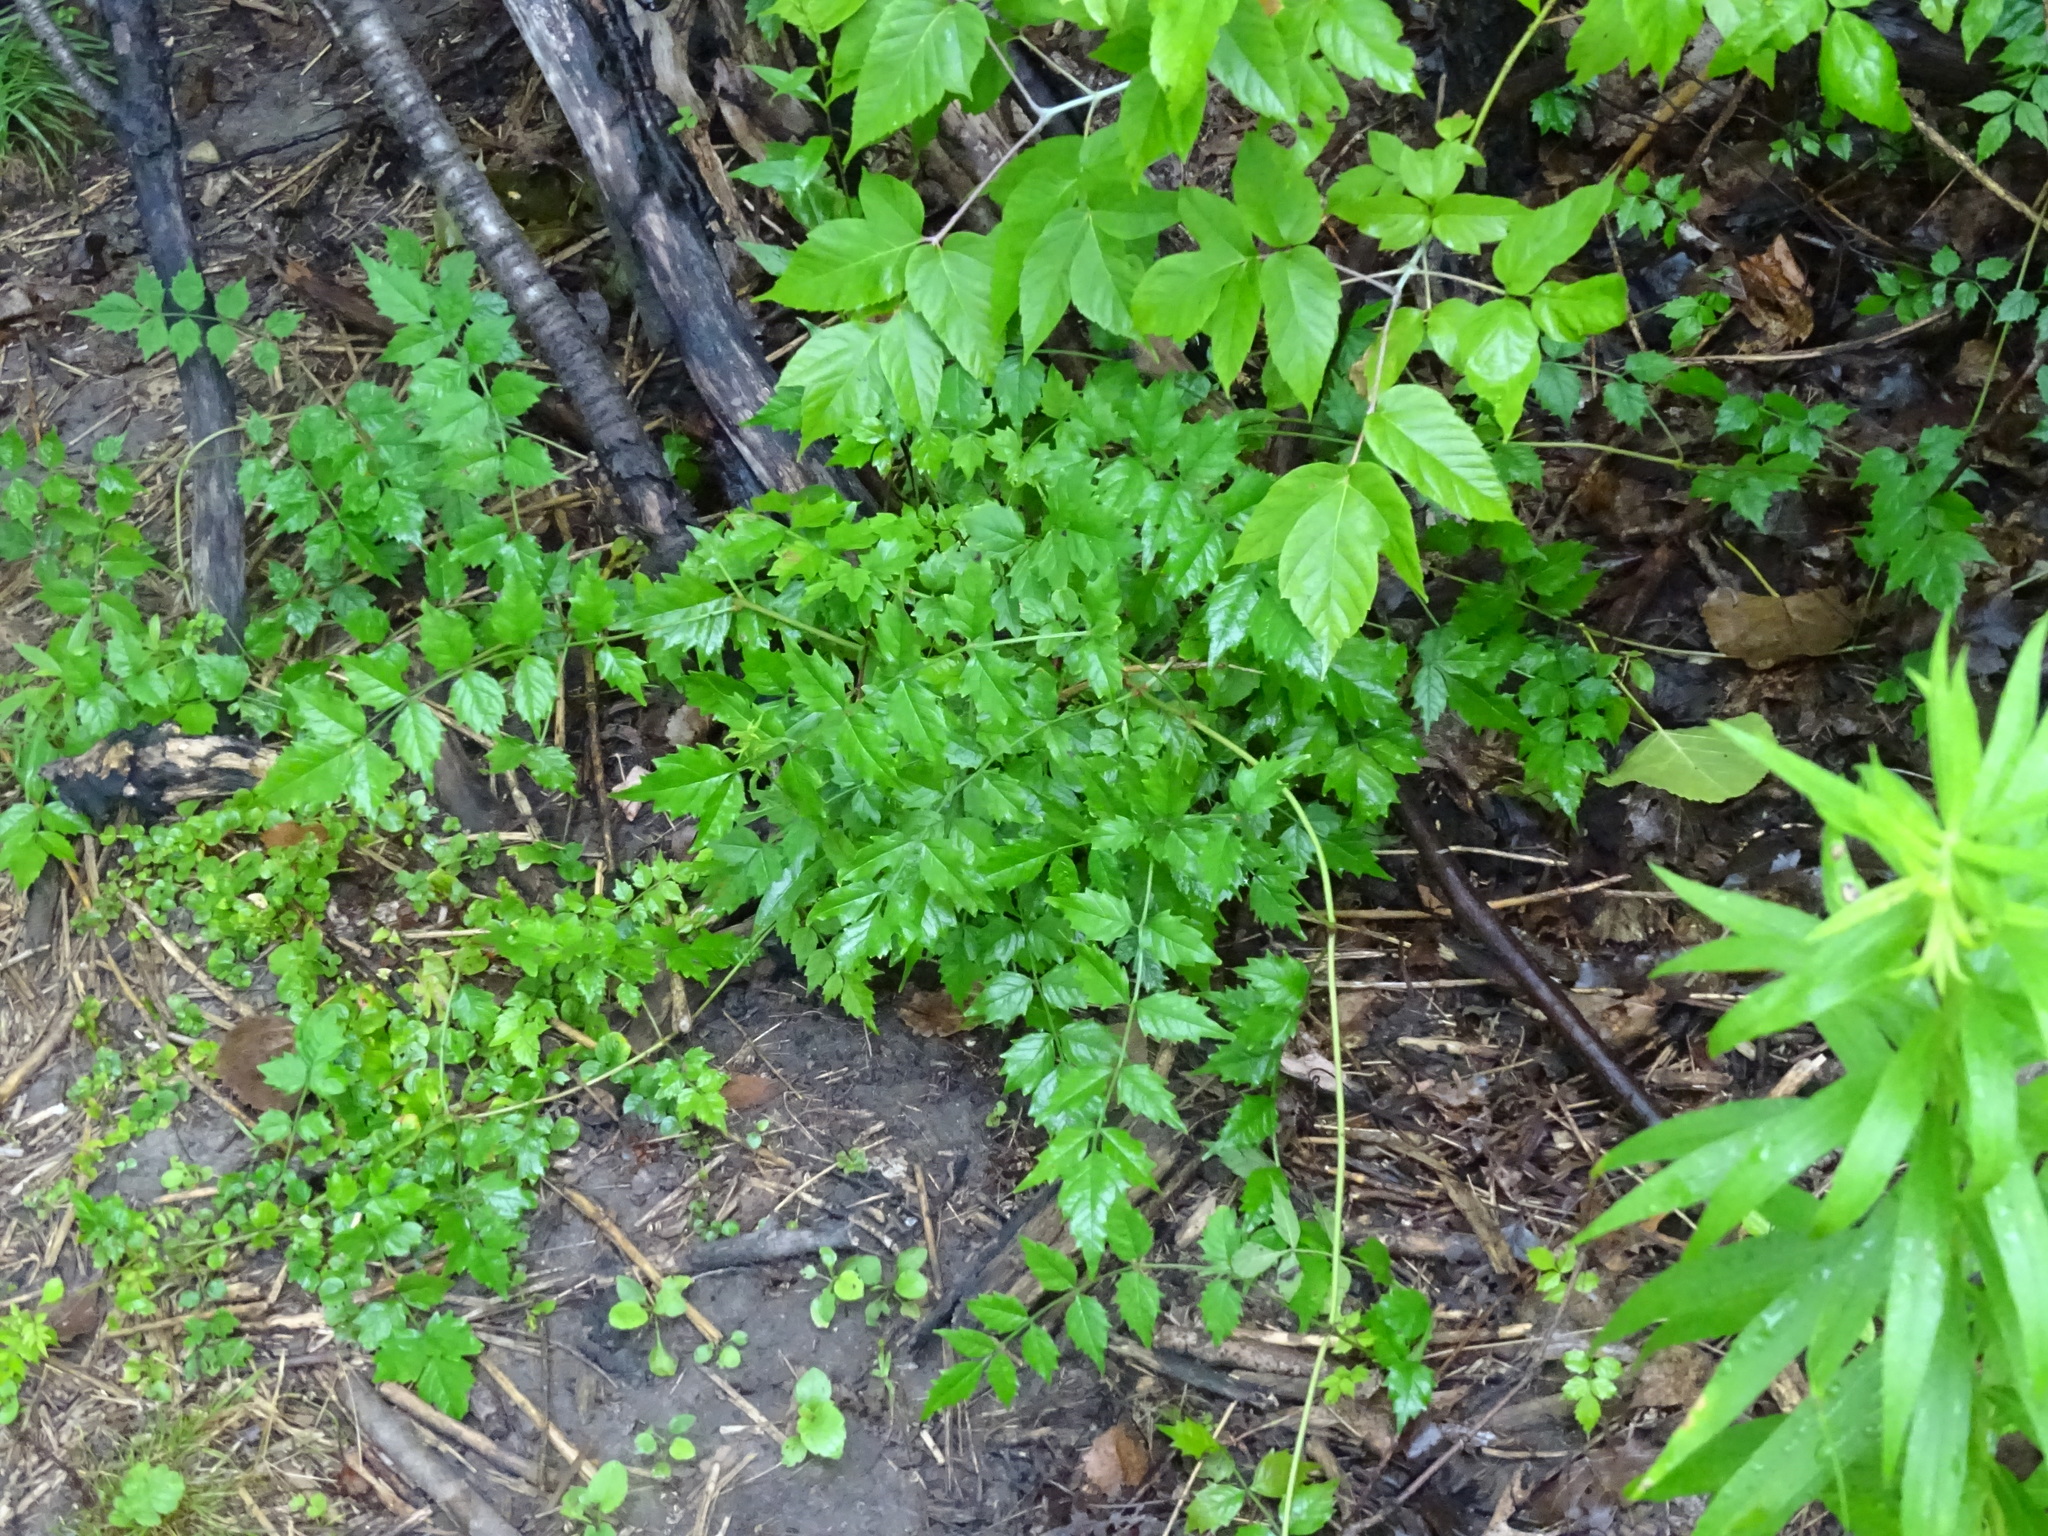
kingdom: Plantae
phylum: Tracheophyta
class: Magnoliopsida
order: Lamiales
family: Bignoniaceae
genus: Campsis
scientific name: Campsis radicans
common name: Trumpet-creeper
